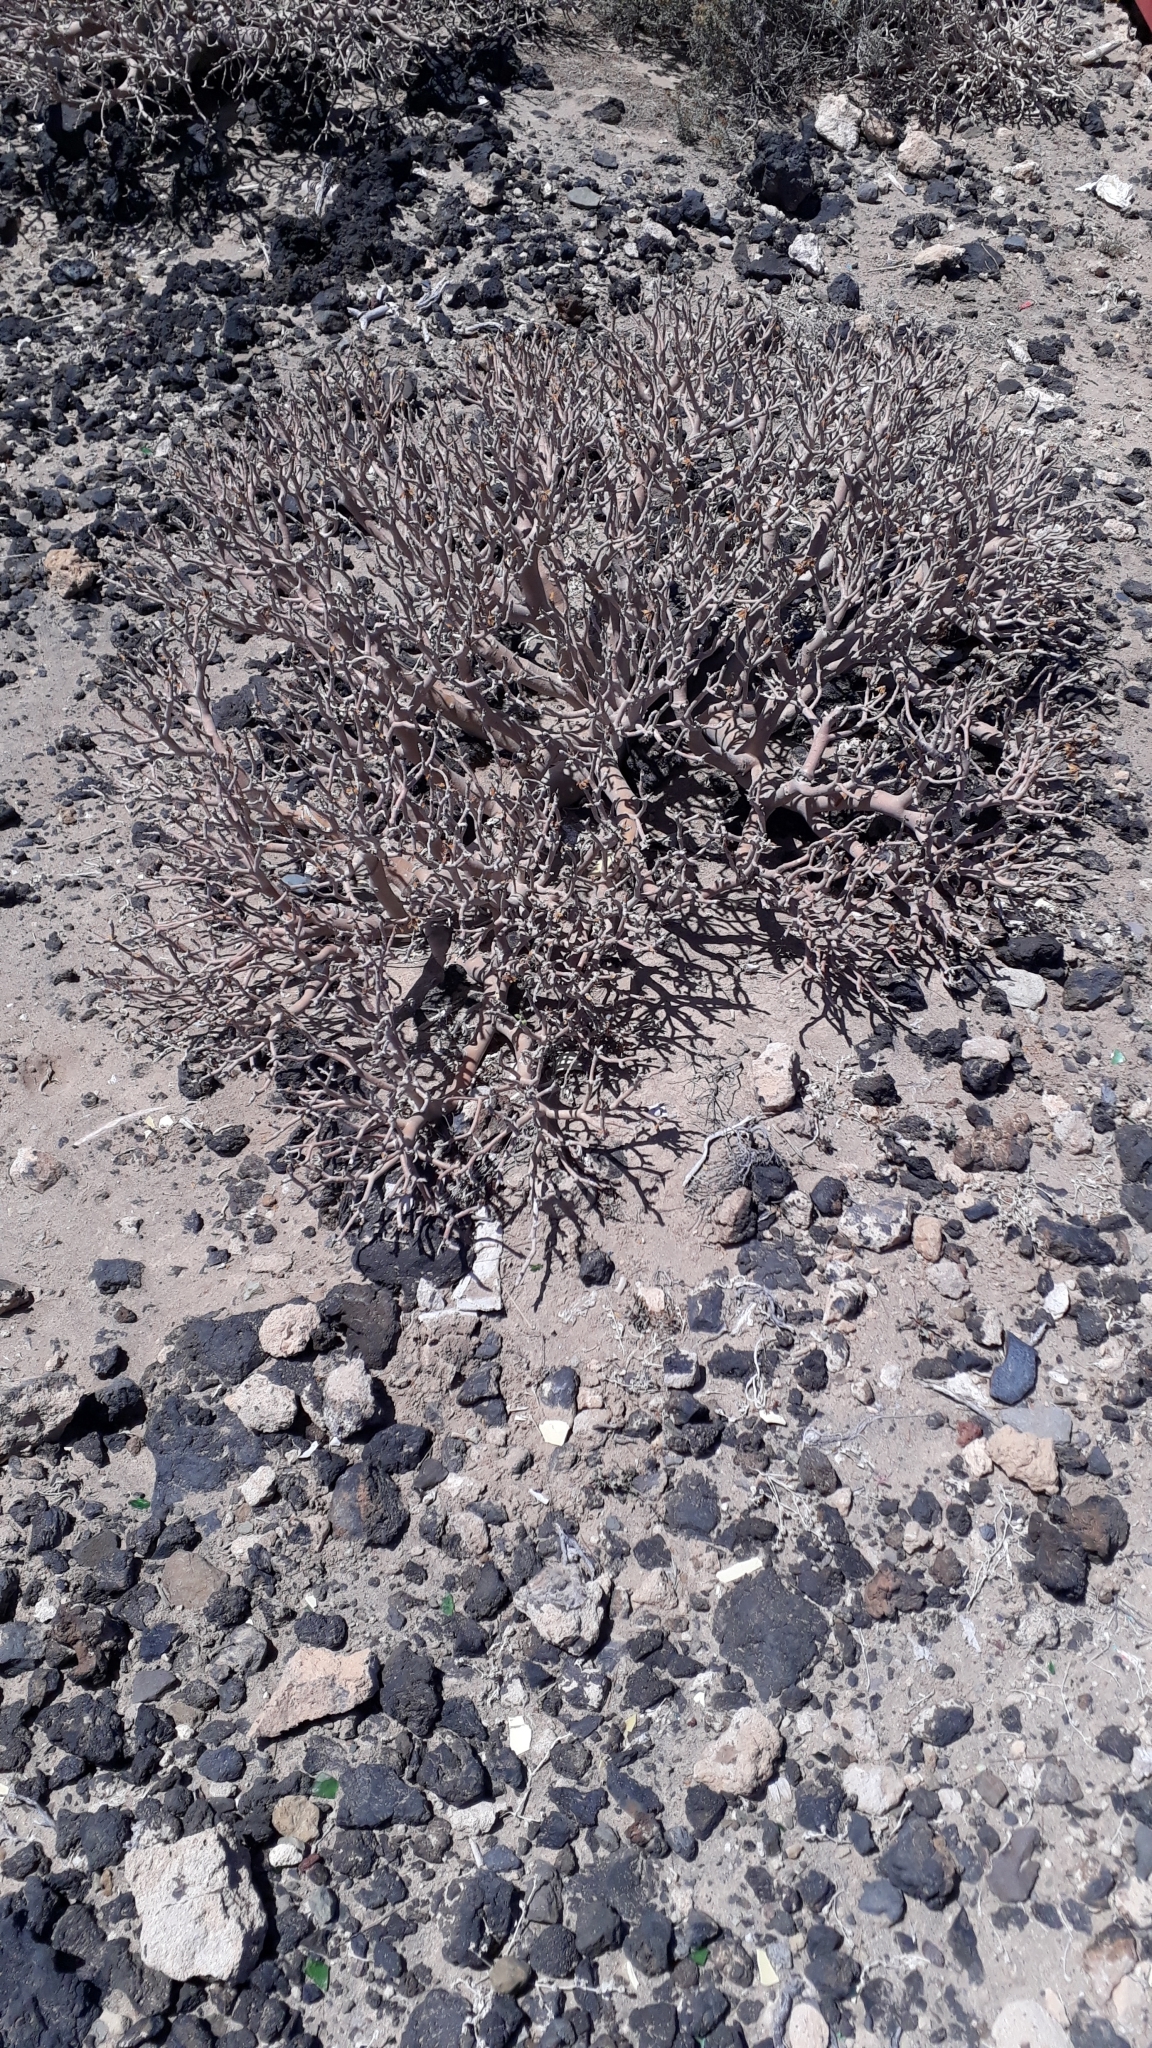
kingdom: Plantae
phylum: Tracheophyta
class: Magnoliopsida
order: Malpighiales
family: Euphorbiaceae
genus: Euphorbia
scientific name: Euphorbia balsamifera
